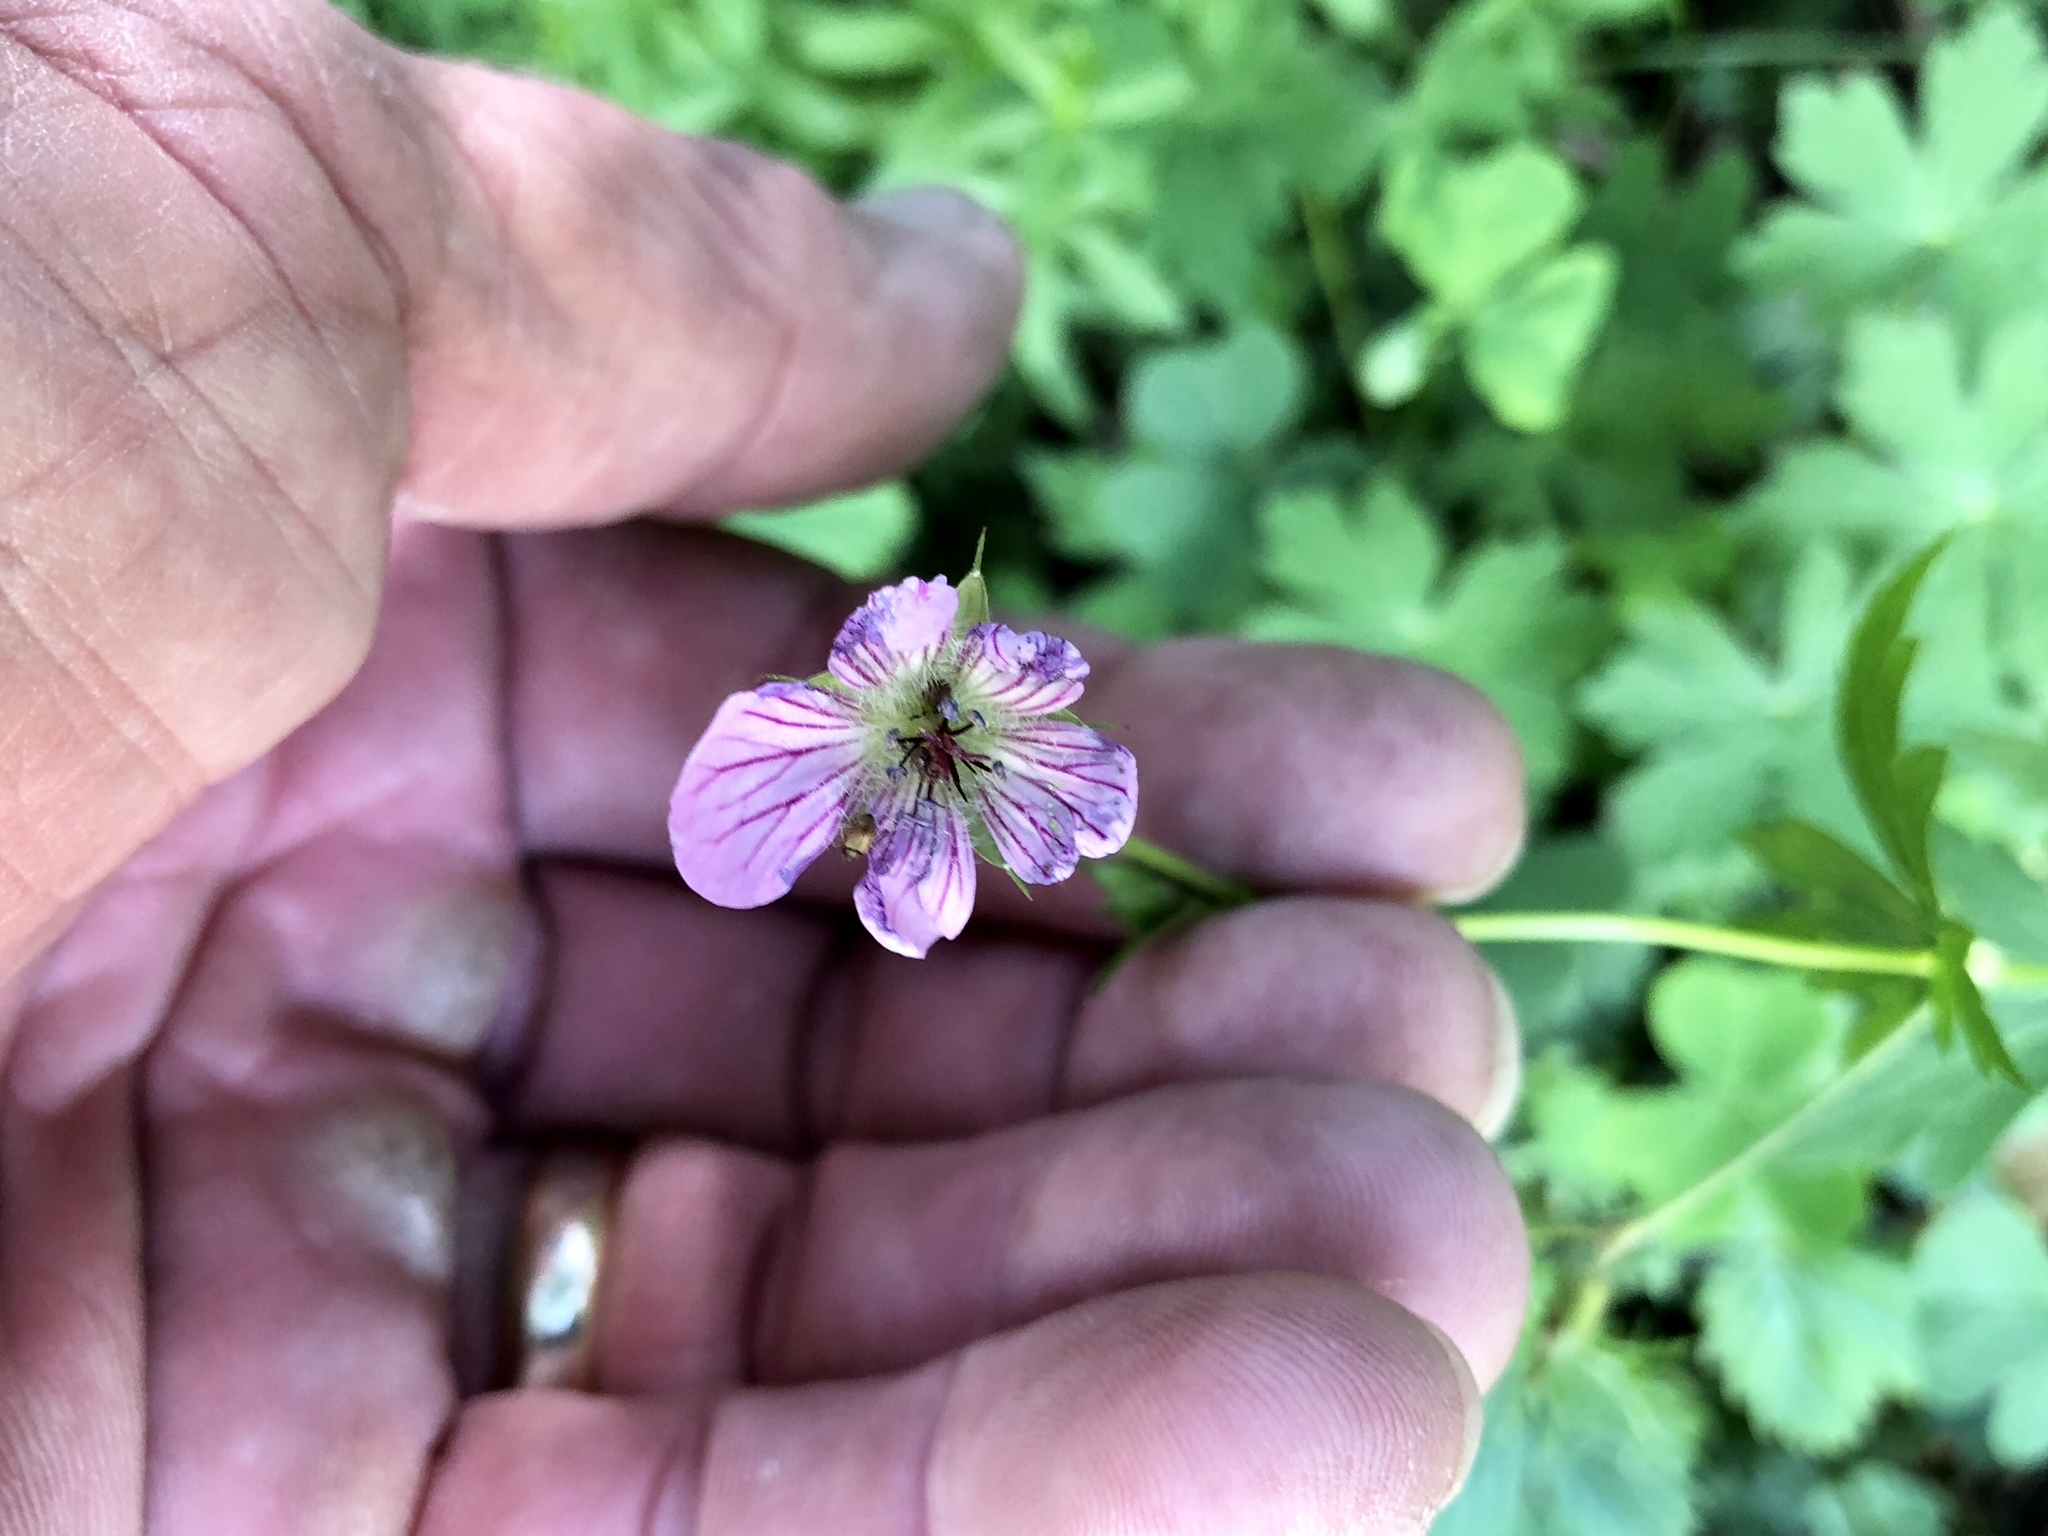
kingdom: Plantae
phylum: Tracheophyta
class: Magnoliopsida
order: Geraniales
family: Geraniaceae
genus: Geranium
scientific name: Geranium richardsonii
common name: Richardson's crane's-bill
